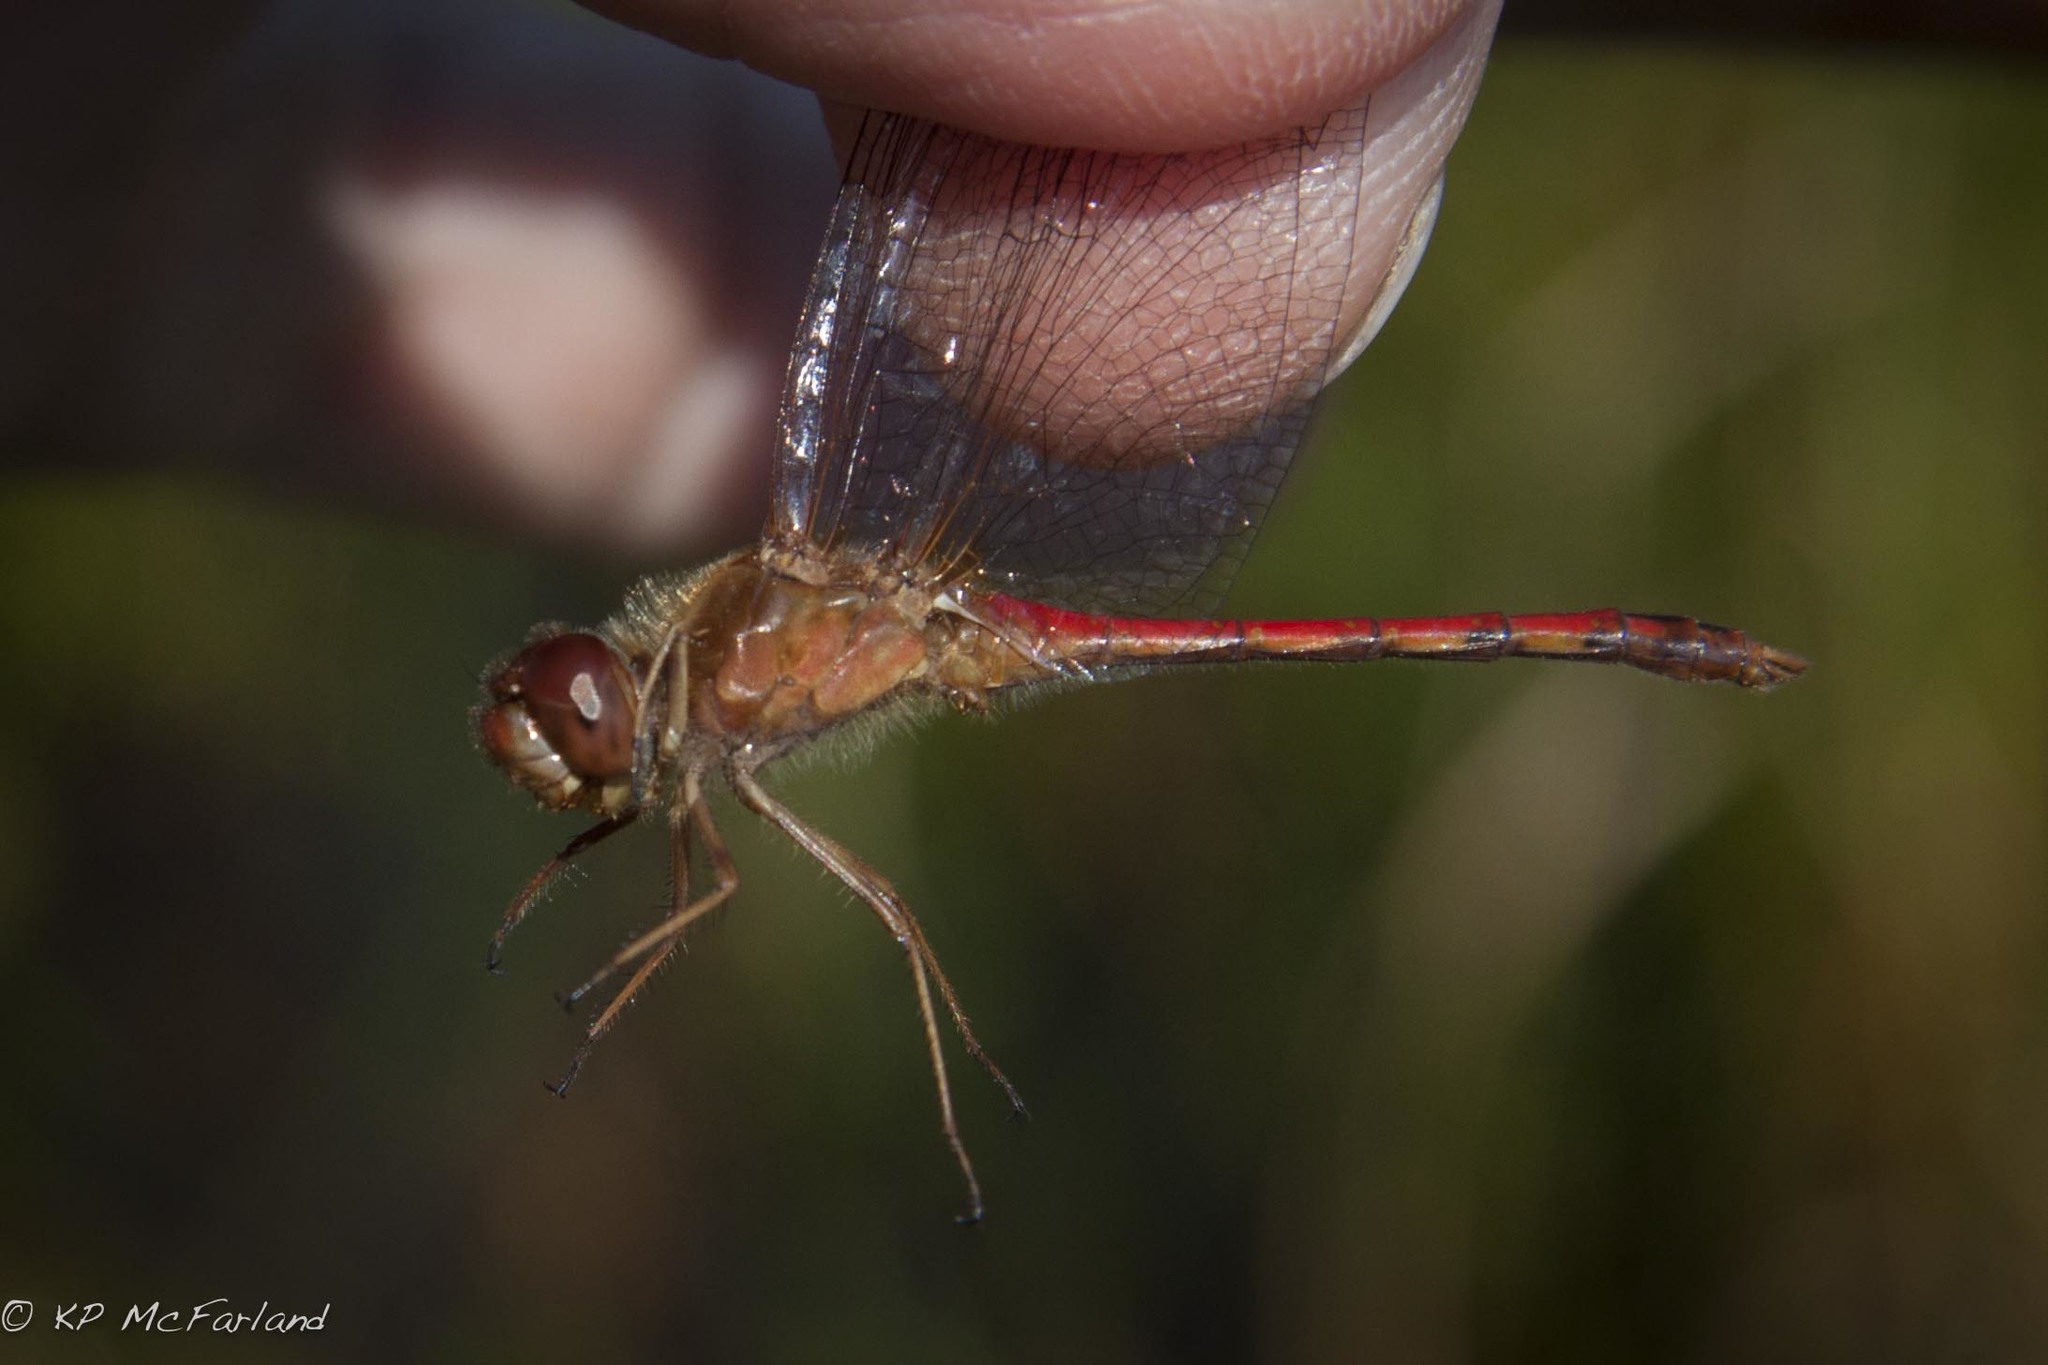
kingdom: Animalia
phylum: Arthropoda
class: Insecta
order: Odonata
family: Libellulidae
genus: Sympetrum
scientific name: Sympetrum vicinum
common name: Autumn meadowhawk
